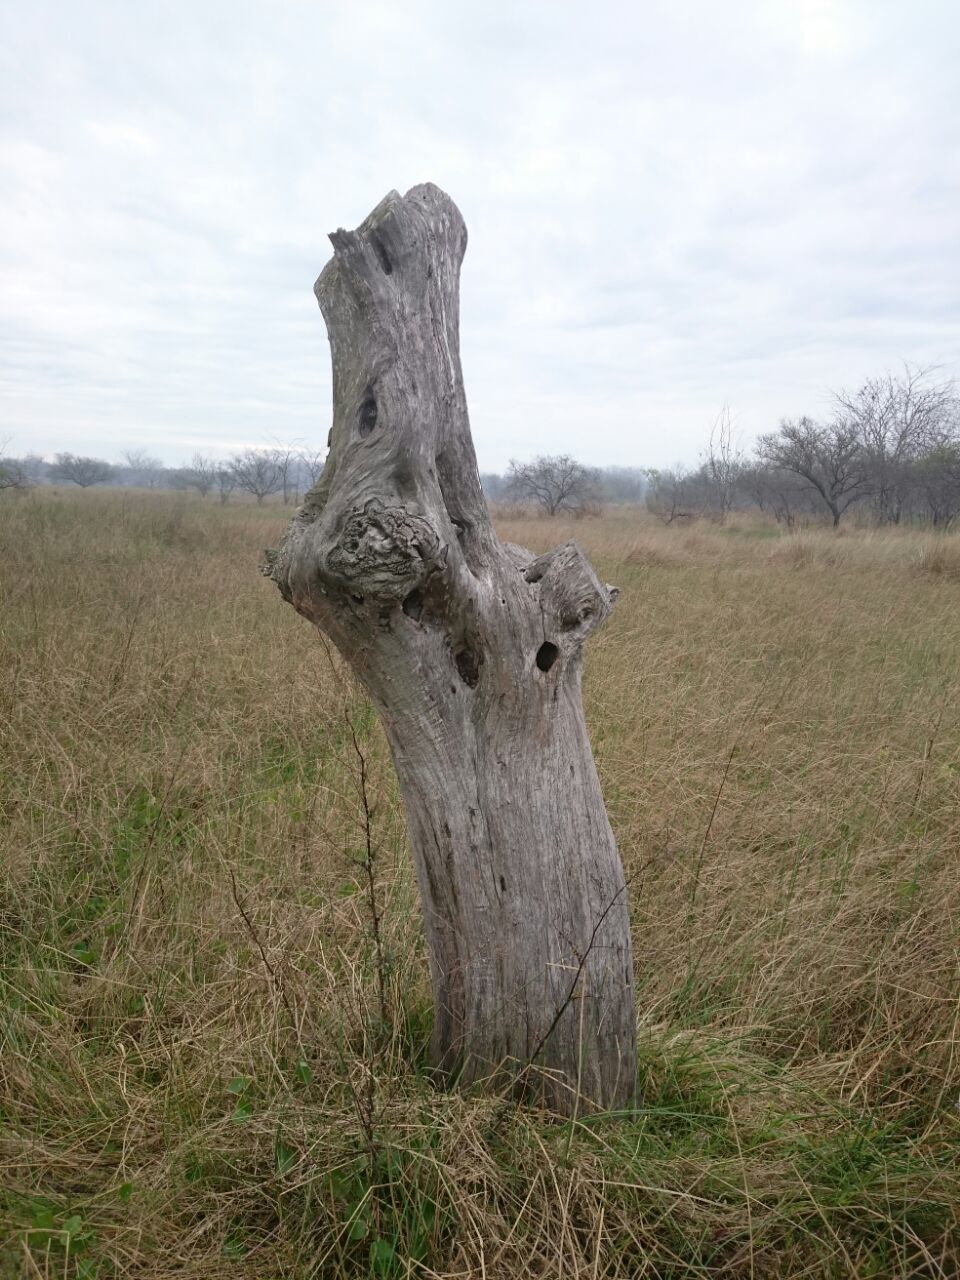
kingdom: Animalia
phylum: Chordata
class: Aves
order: Passeriformes
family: Furnariidae
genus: Drymornis
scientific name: Drymornis bridgesii
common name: Scimitar-billed woodcreeper
